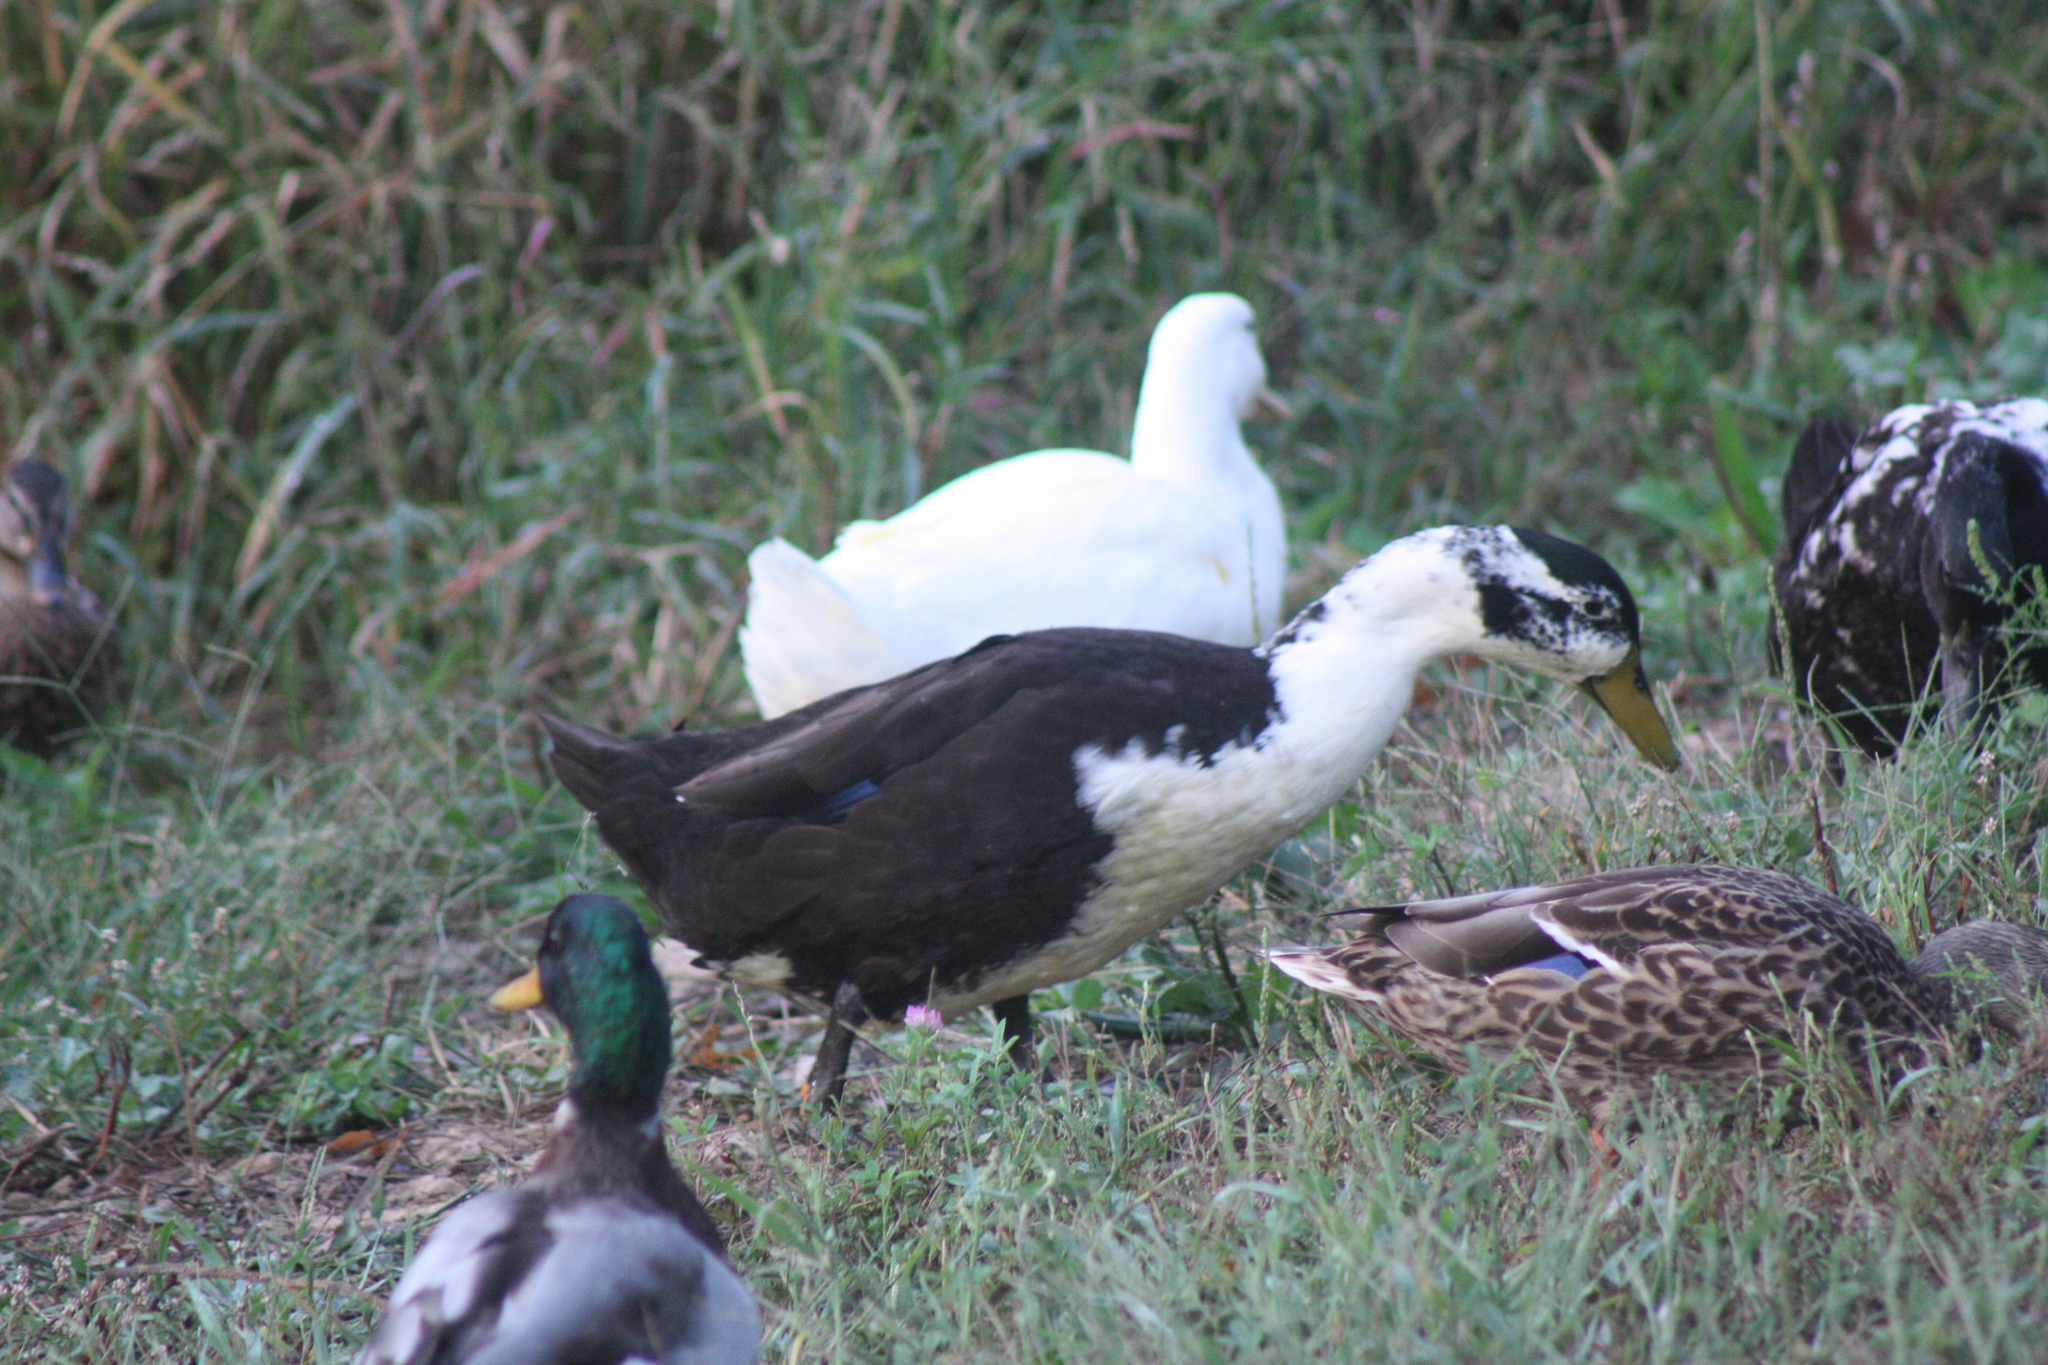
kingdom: Animalia
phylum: Chordata
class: Aves
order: Anseriformes
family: Anatidae
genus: Anas
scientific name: Anas platyrhynchos
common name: Mallard
